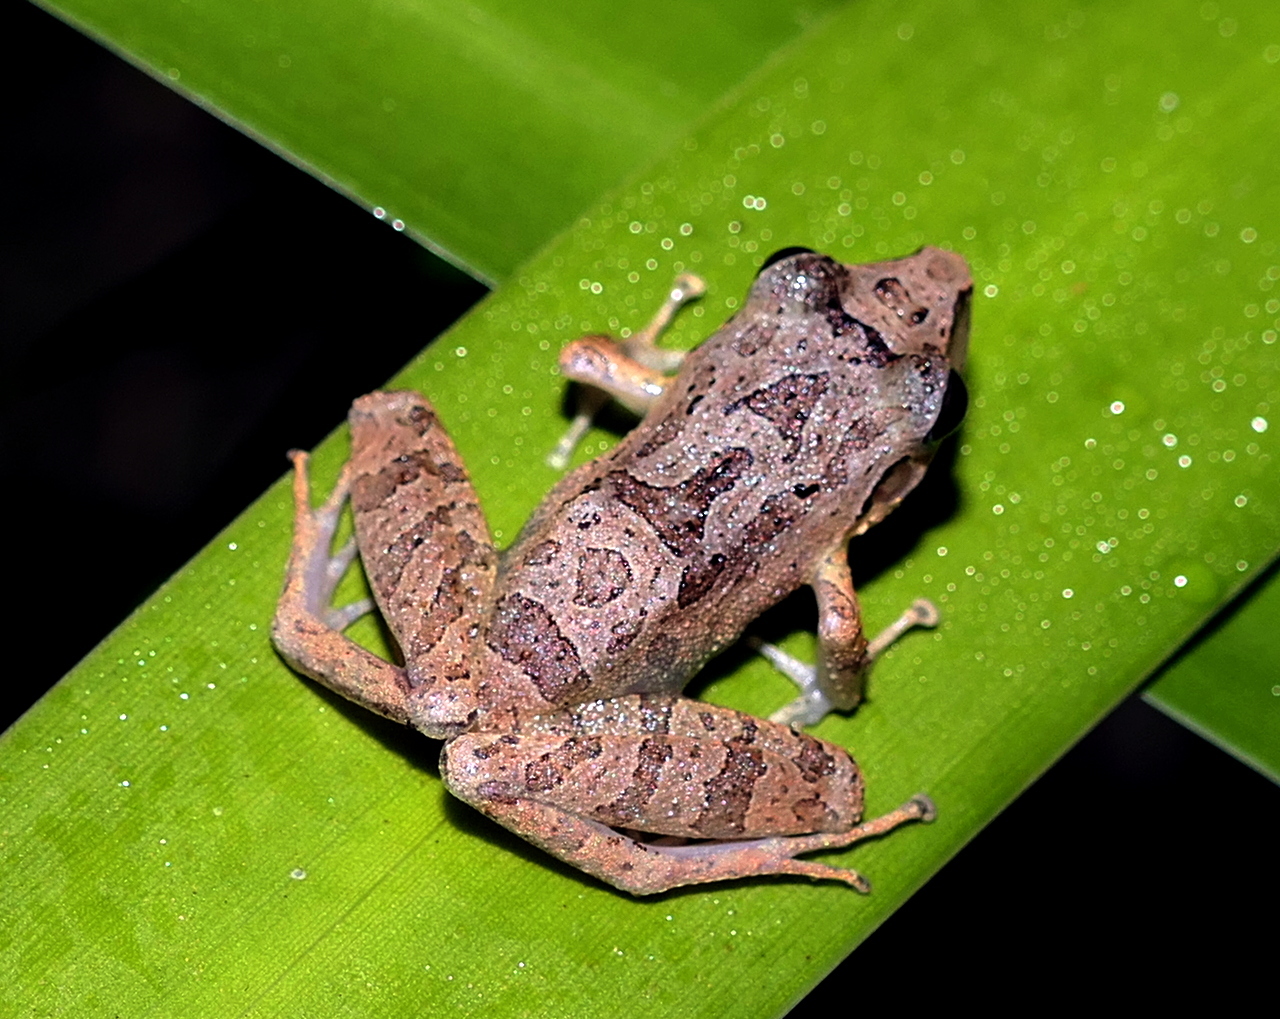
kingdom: Animalia
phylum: Chordata
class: Amphibia
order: Anura
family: Craugastoridae
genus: Pristimantis
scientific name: Pristimantis ramagii
